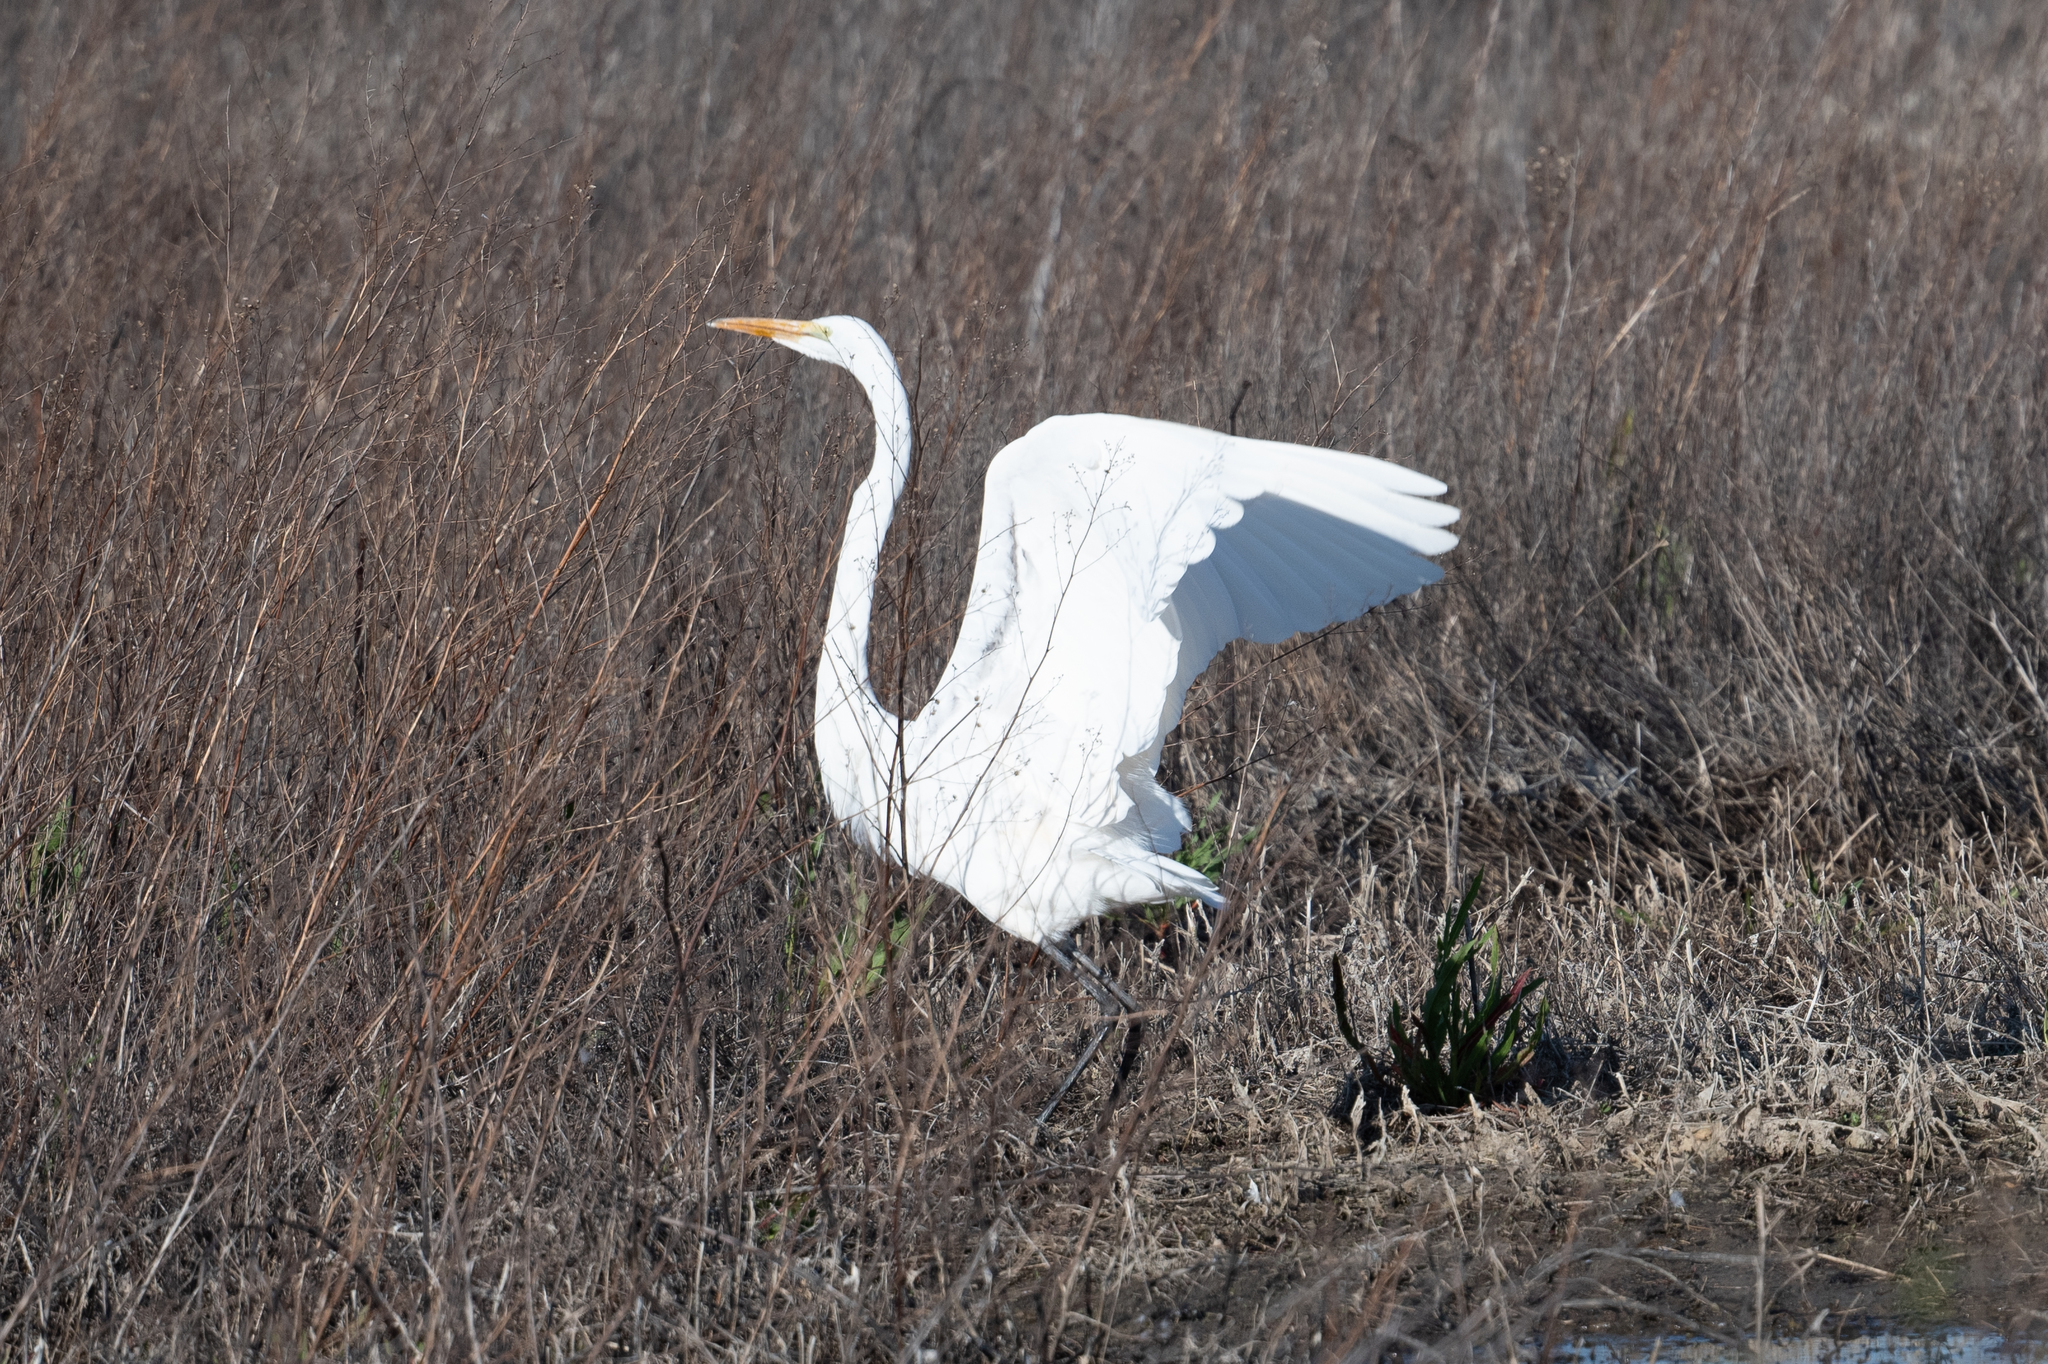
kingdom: Animalia
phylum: Chordata
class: Aves
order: Pelecaniformes
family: Ardeidae
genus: Ardea
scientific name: Ardea alba
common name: Great egret
